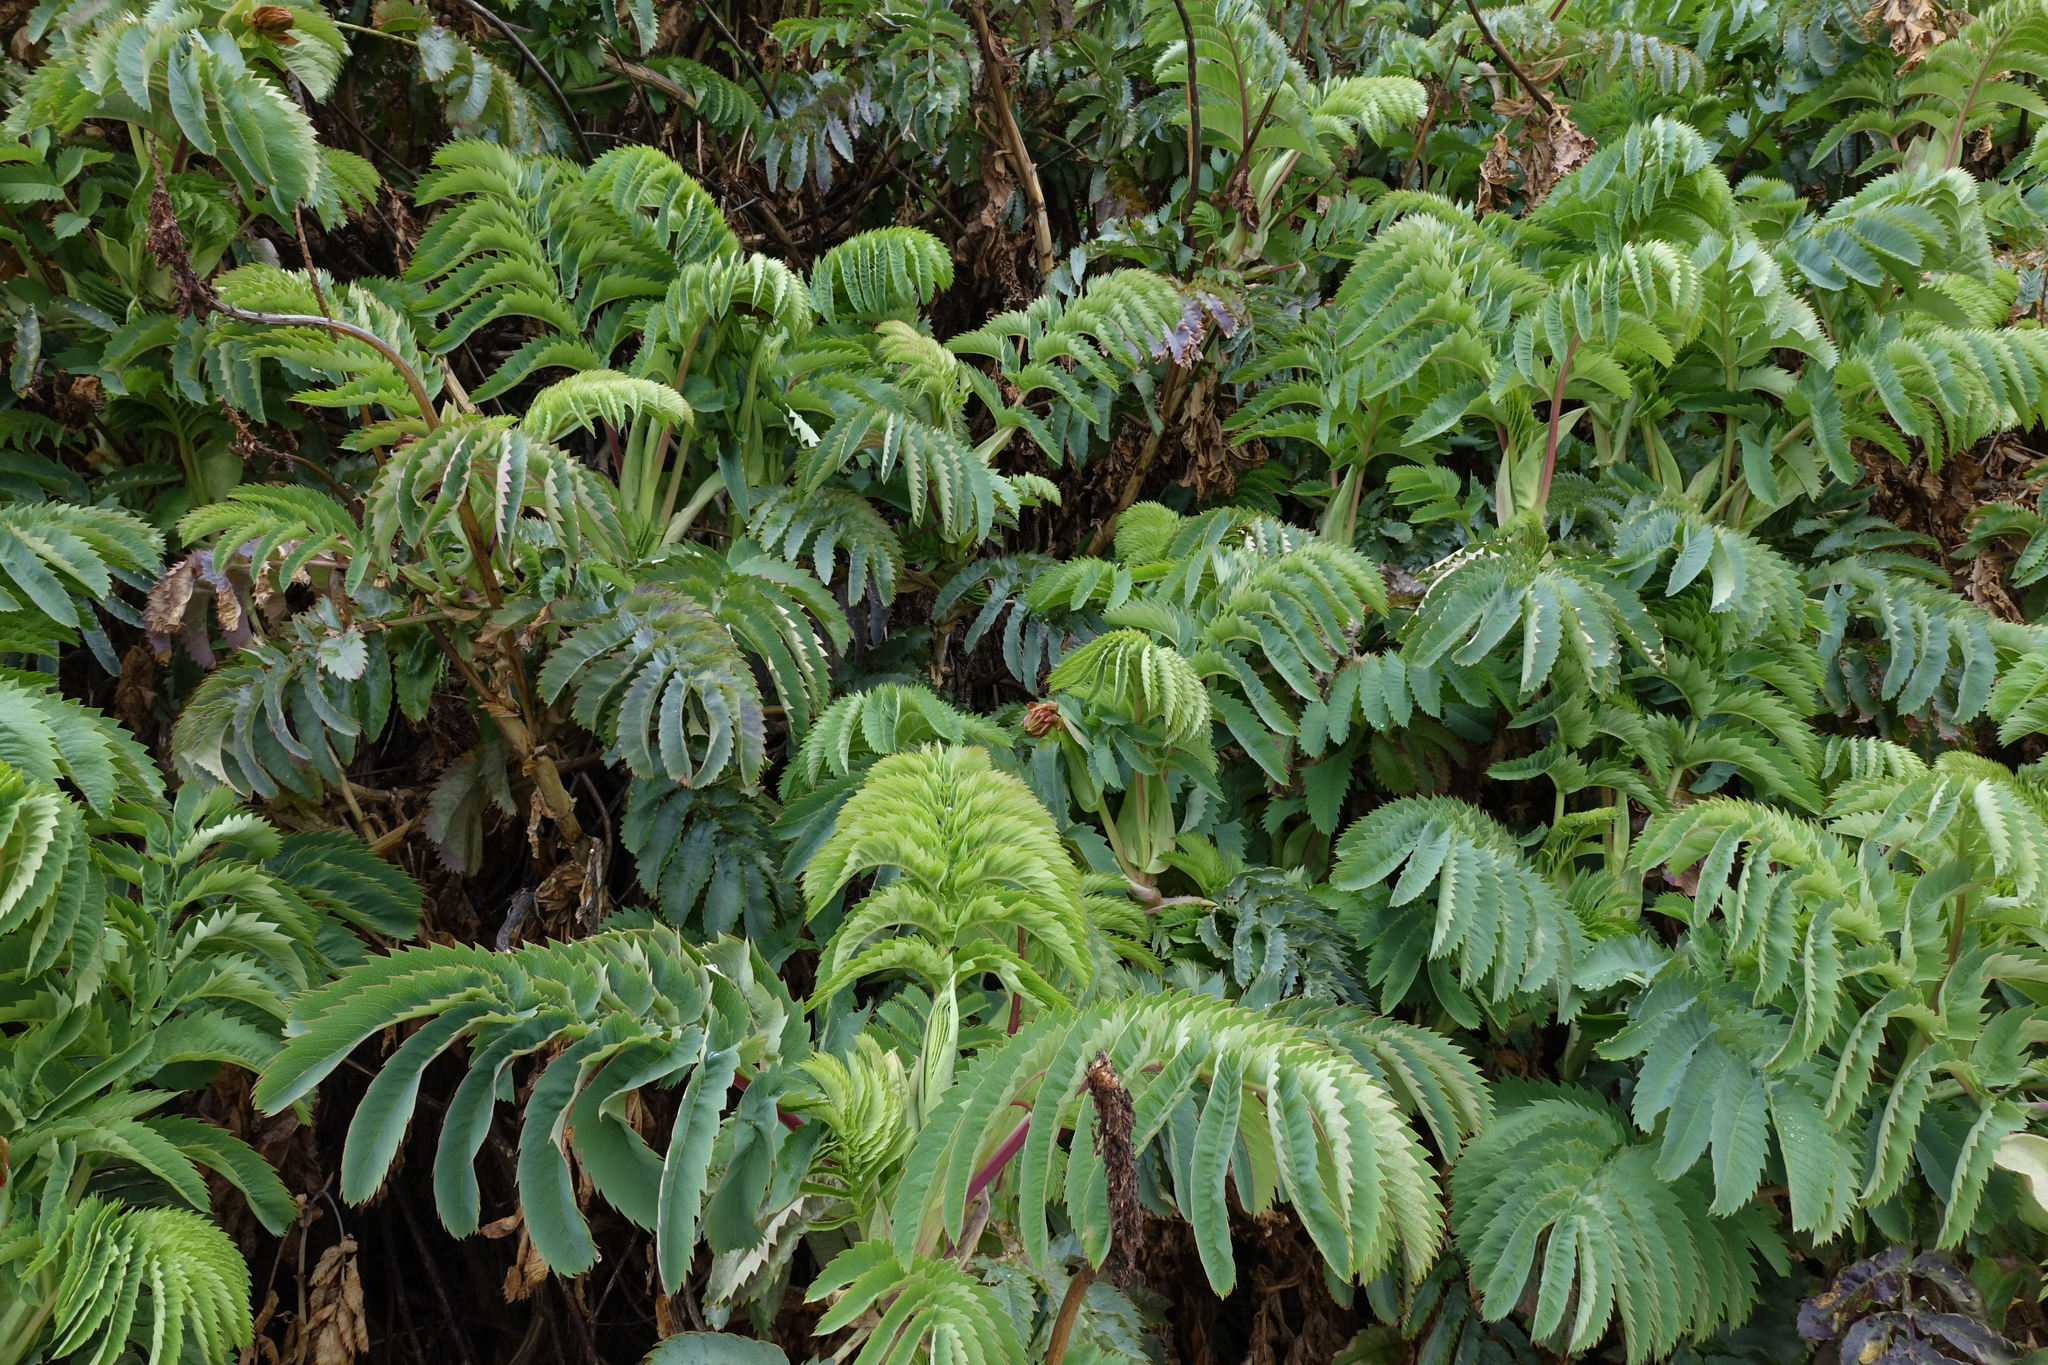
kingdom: Plantae
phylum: Tracheophyta
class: Magnoliopsida
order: Geraniales
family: Melianthaceae
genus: Melianthus
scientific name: Melianthus major
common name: Honey-flower
